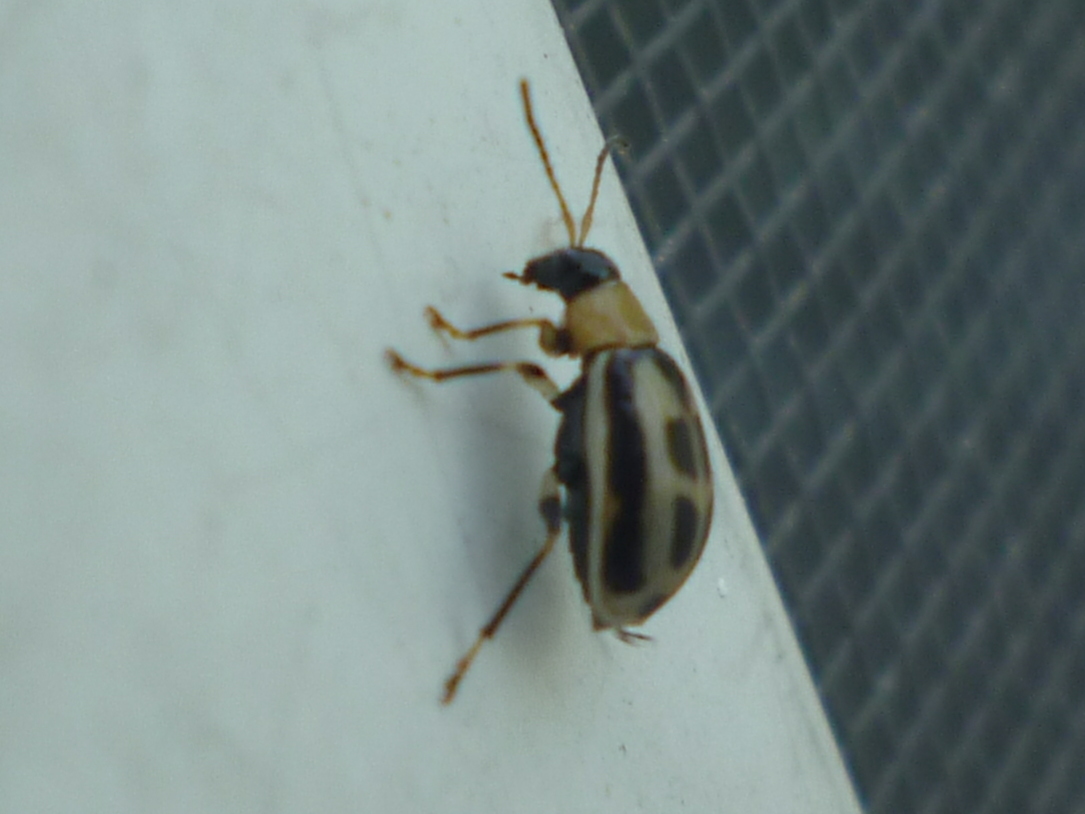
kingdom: Animalia
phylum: Arthropoda
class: Insecta
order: Coleoptera
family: Chrysomelidae
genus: Cerotoma
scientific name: Cerotoma trifurcata
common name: Bean leaf beetle
